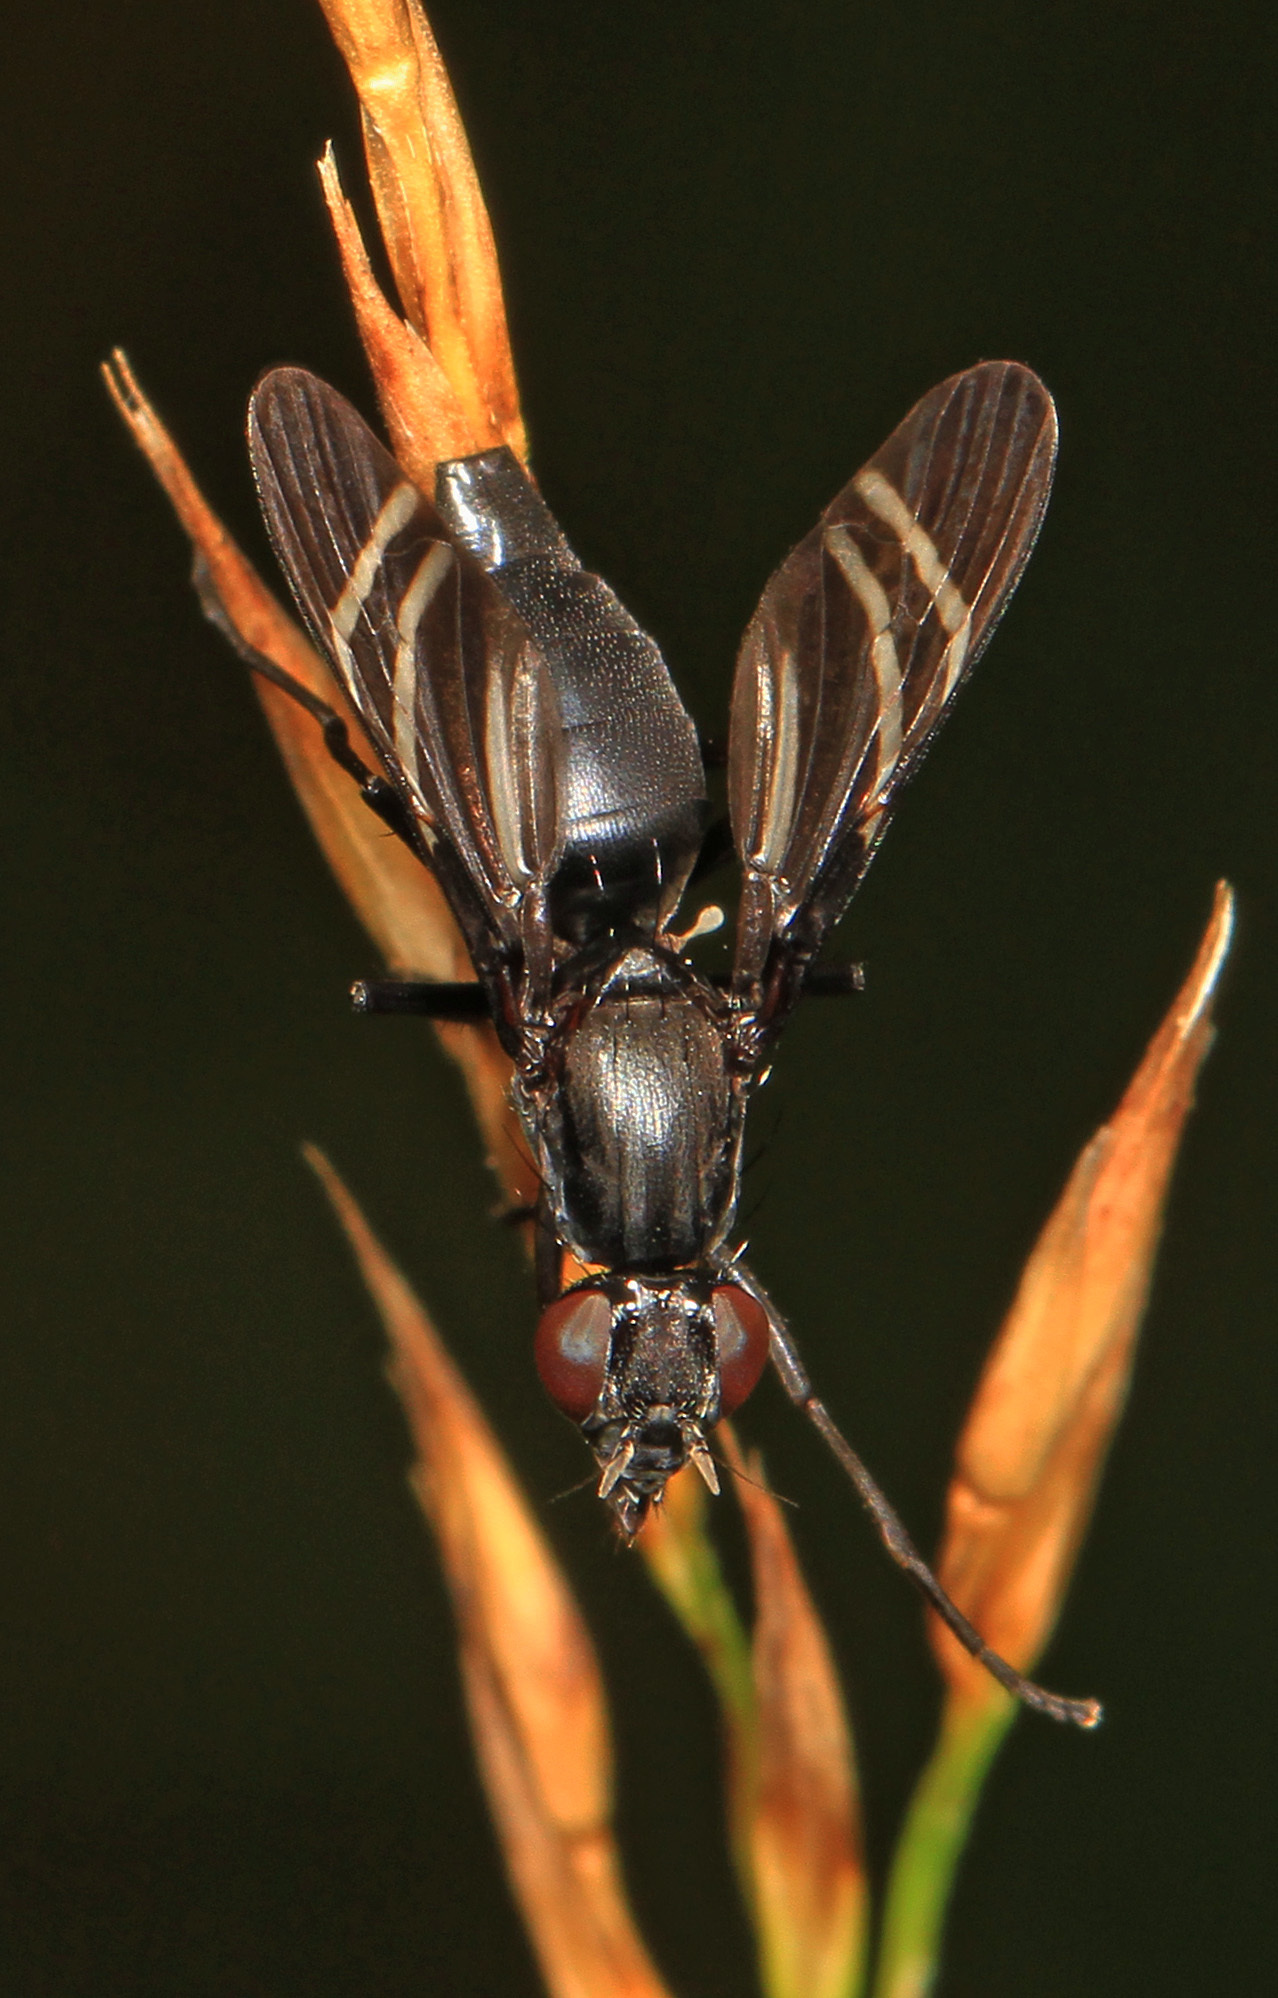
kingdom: Animalia
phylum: Arthropoda
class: Insecta
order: Diptera
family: Ulidiidae
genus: Tritoxa
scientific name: Tritoxa flexa
